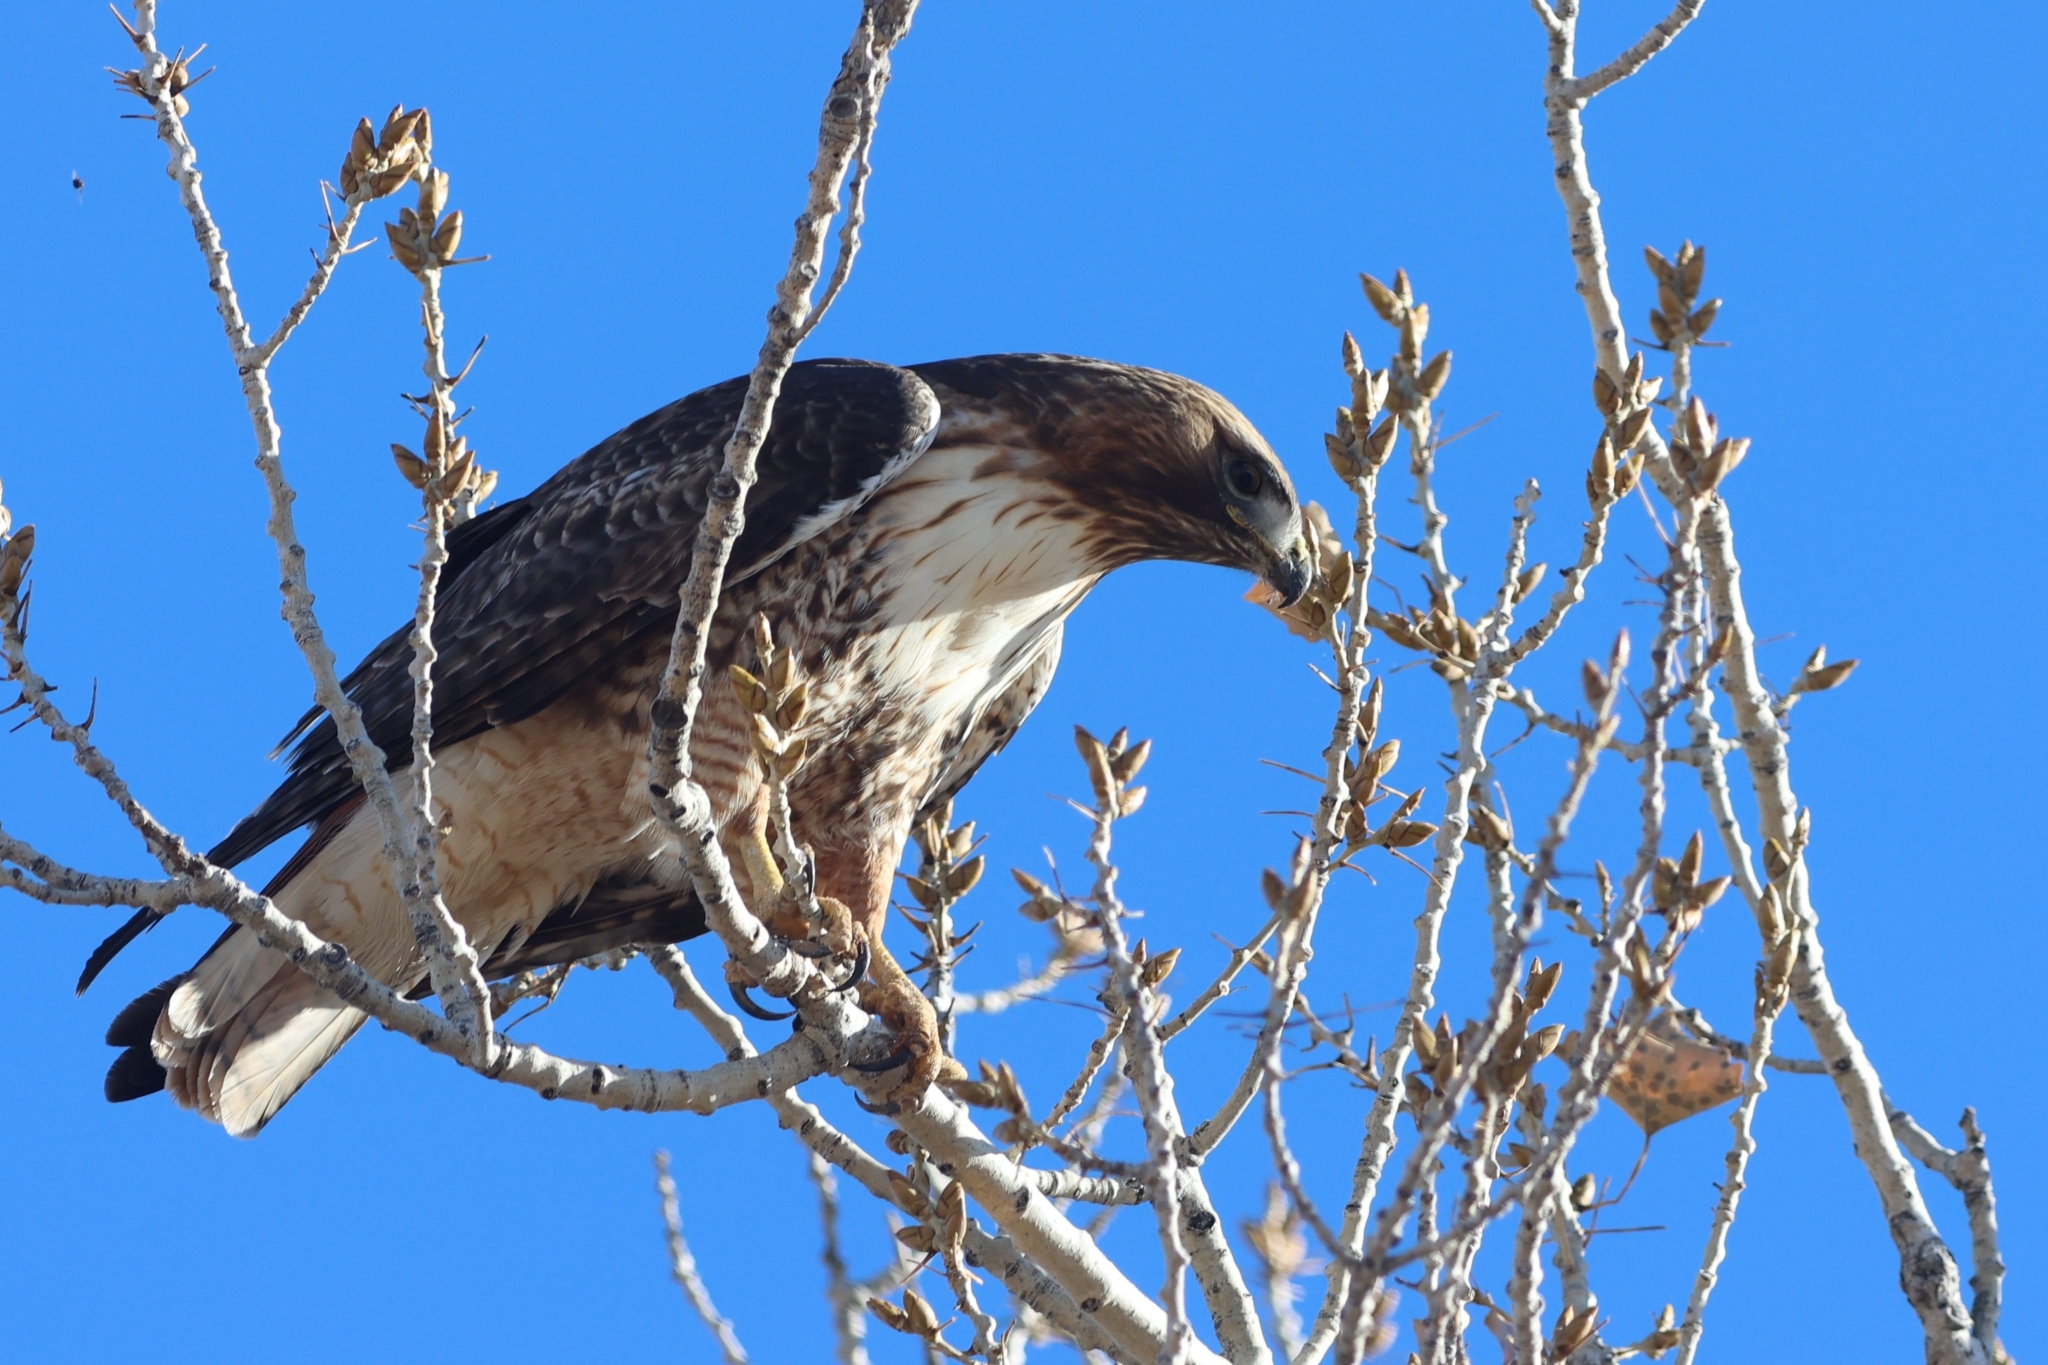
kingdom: Animalia
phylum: Chordata
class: Aves
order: Accipitriformes
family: Accipitridae
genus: Buteo
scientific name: Buteo jamaicensis
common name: Red-tailed hawk
